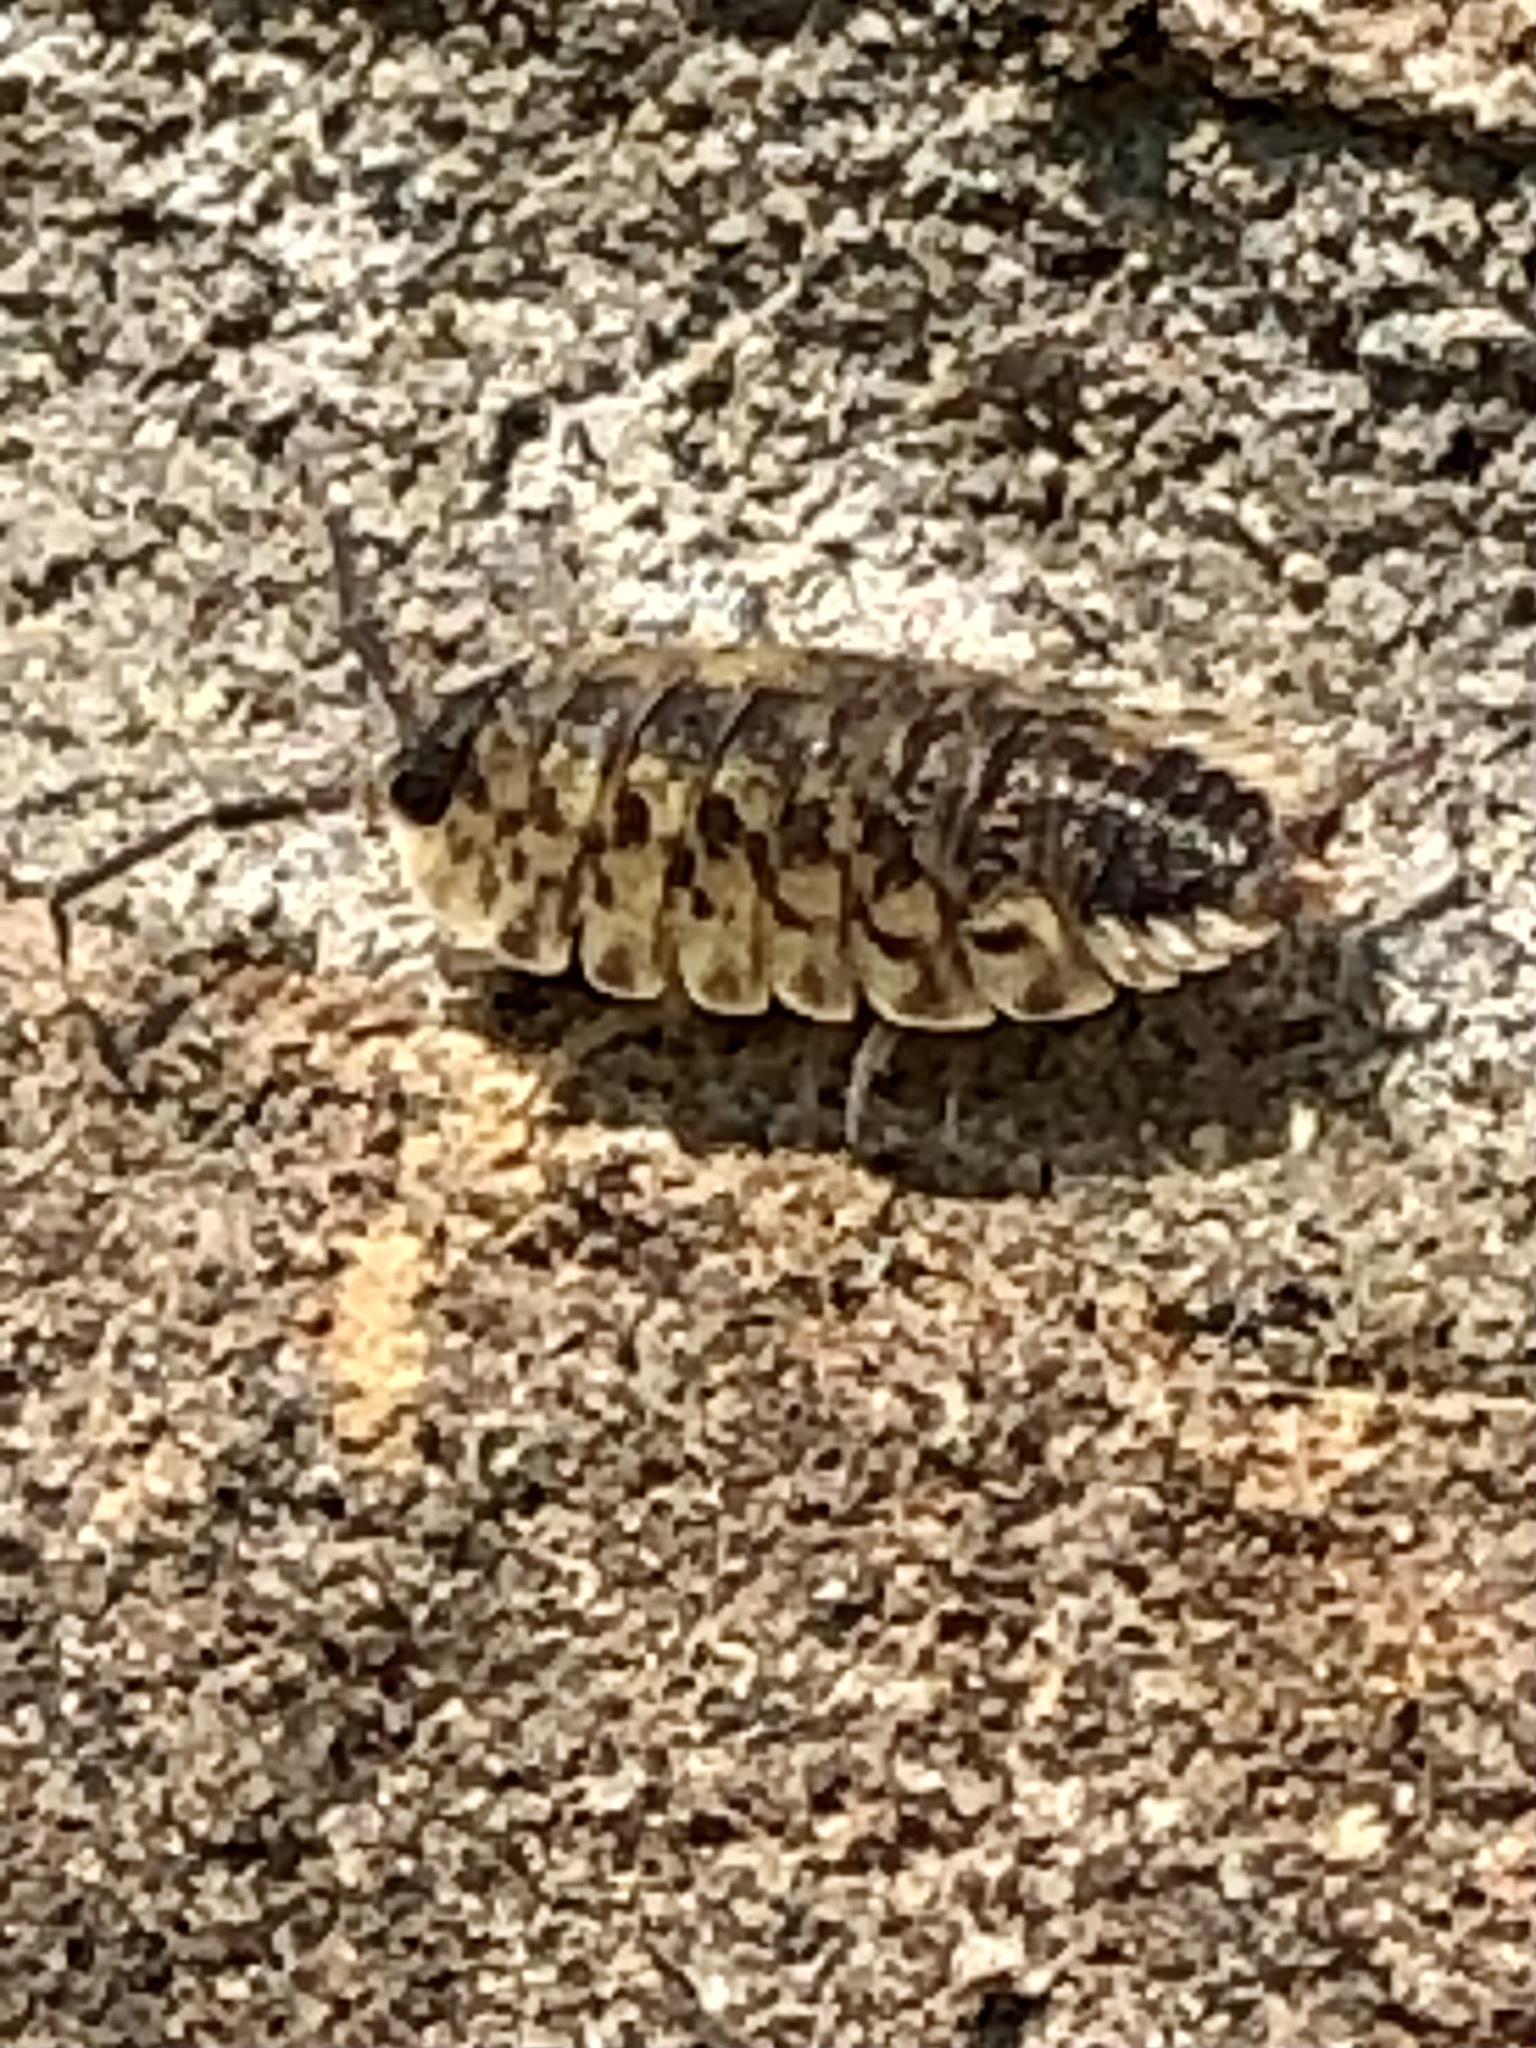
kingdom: Animalia
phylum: Arthropoda
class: Malacostraca
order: Isopoda
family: Porcellionidae
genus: Porcellio
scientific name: Porcellio spinicornis
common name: Painted woodlouse
